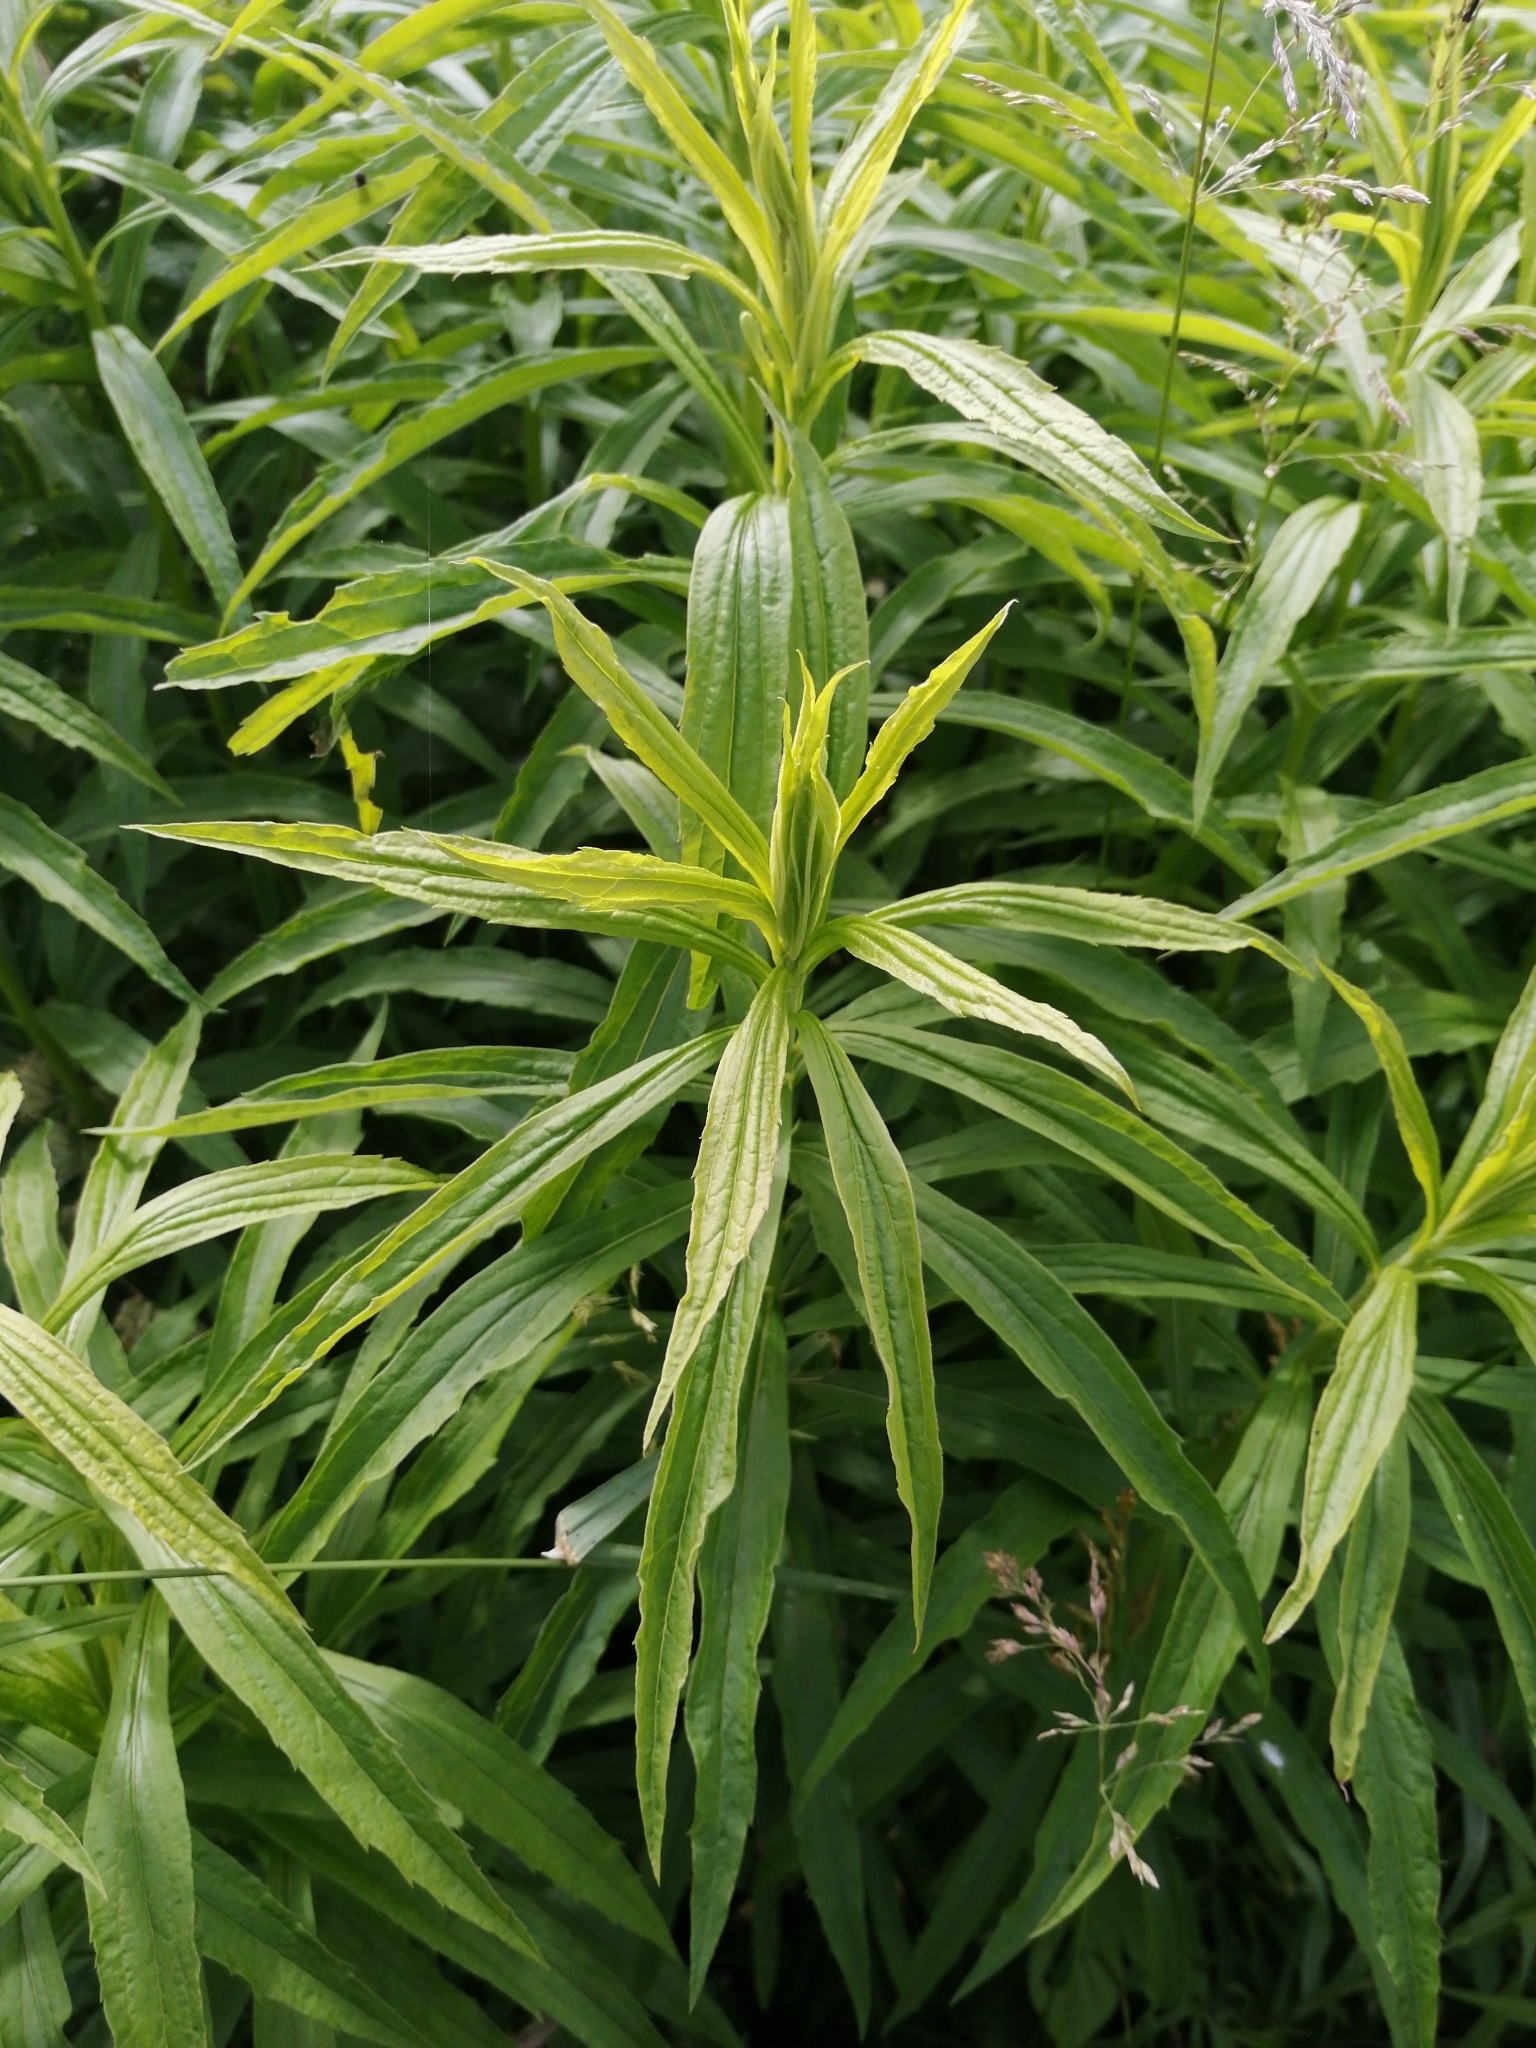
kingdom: Plantae
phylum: Tracheophyta
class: Magnoliopsida
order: Asterales
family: Asteraceae
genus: Solidago
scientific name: Solidago canadensis
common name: Canada goldenrod
